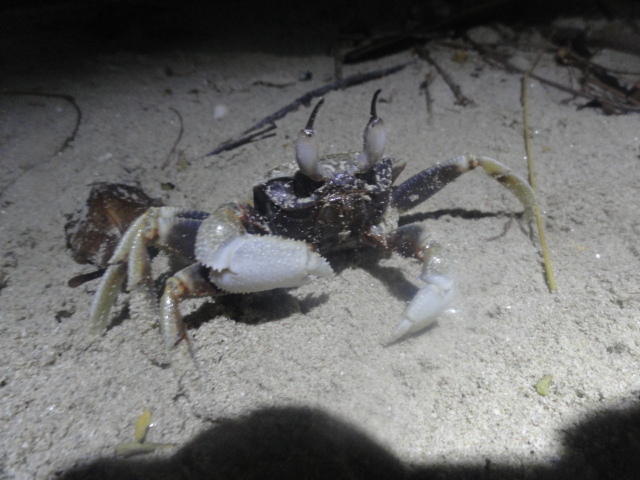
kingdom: Animalia
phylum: Arthropoda
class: Malacostraca
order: Decapoda
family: Ocypodidae
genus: Ocypode
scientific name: Ocypode ceratophthalmus
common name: Indo-pacific ghost crab
